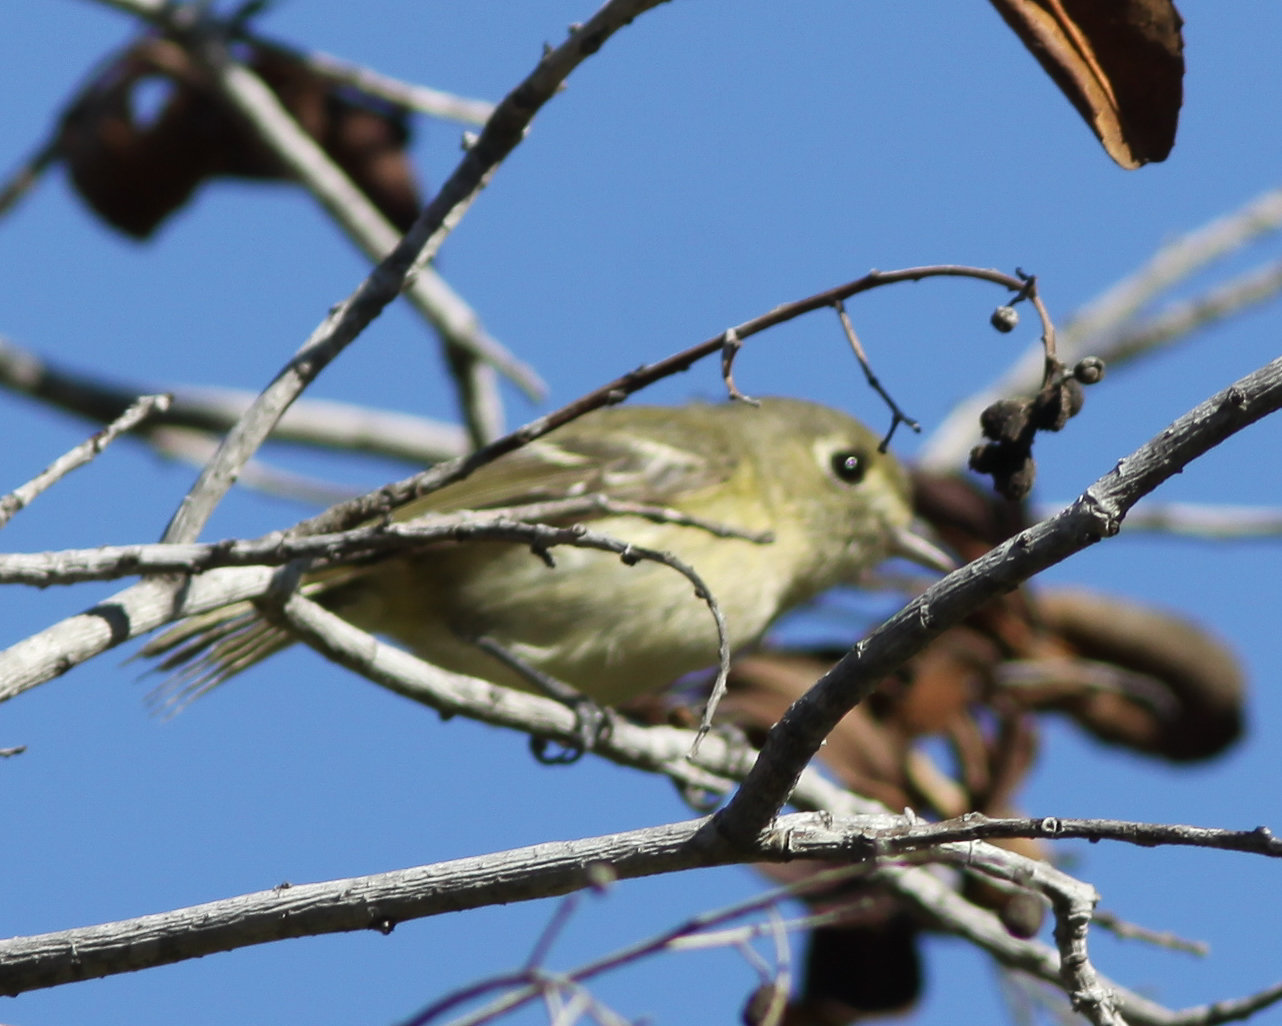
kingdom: Animalia
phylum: Chordata
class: Aves
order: Passeriformes
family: Vireonidae
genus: Vireo
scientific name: Vireo huttoni
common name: Hutton's vireo
